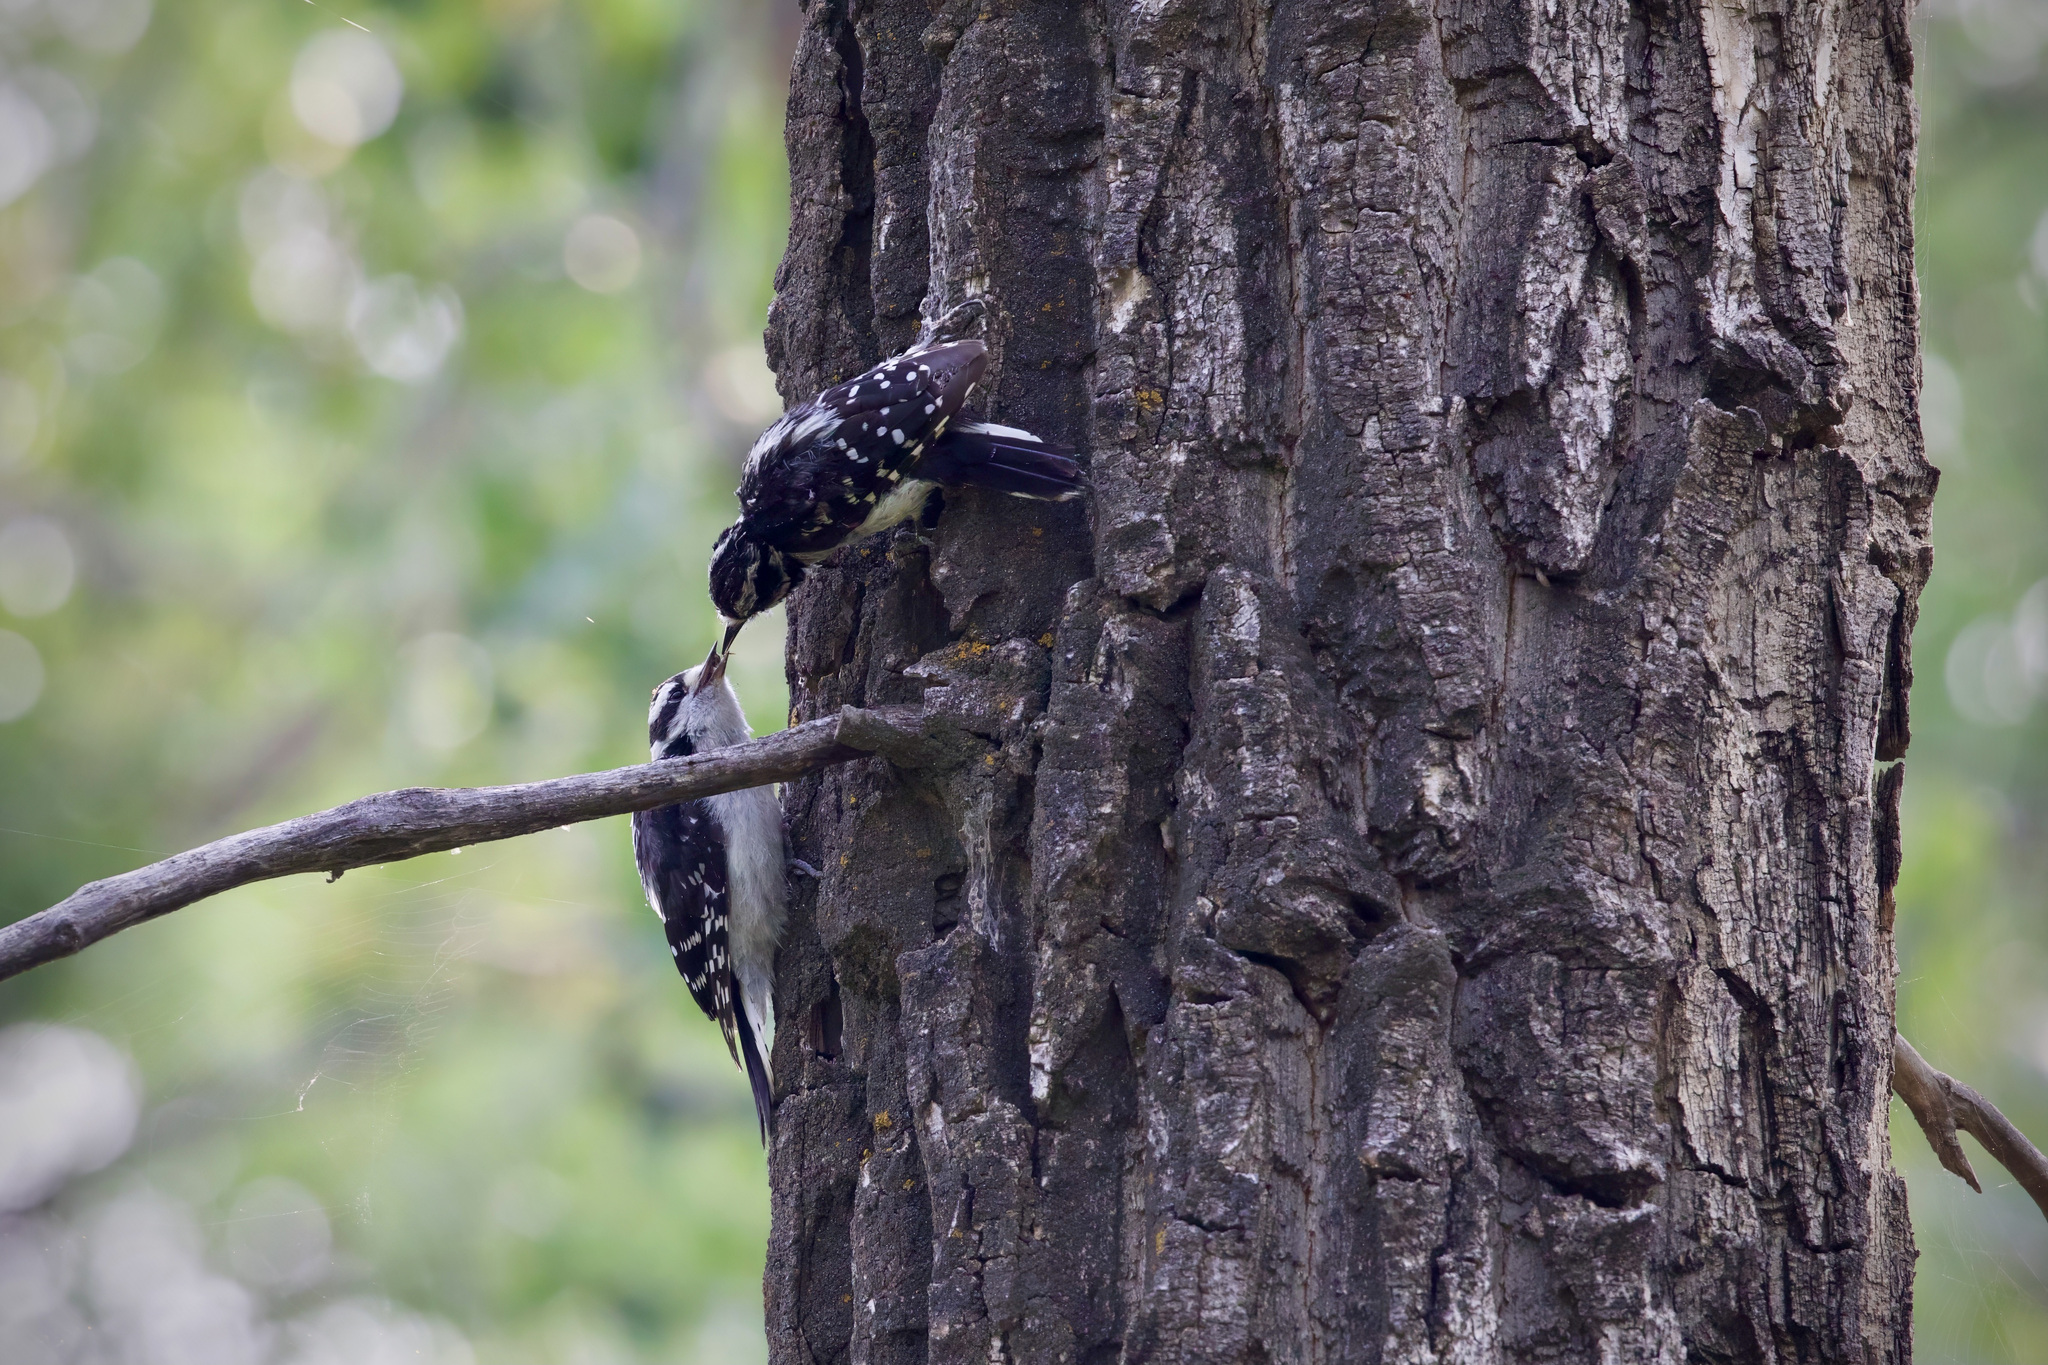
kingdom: Animalia
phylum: Chordata
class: Aves
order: Piciformes
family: Picidae
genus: Dryobates
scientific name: Dryobates pubescens
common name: Downy woodpecker
